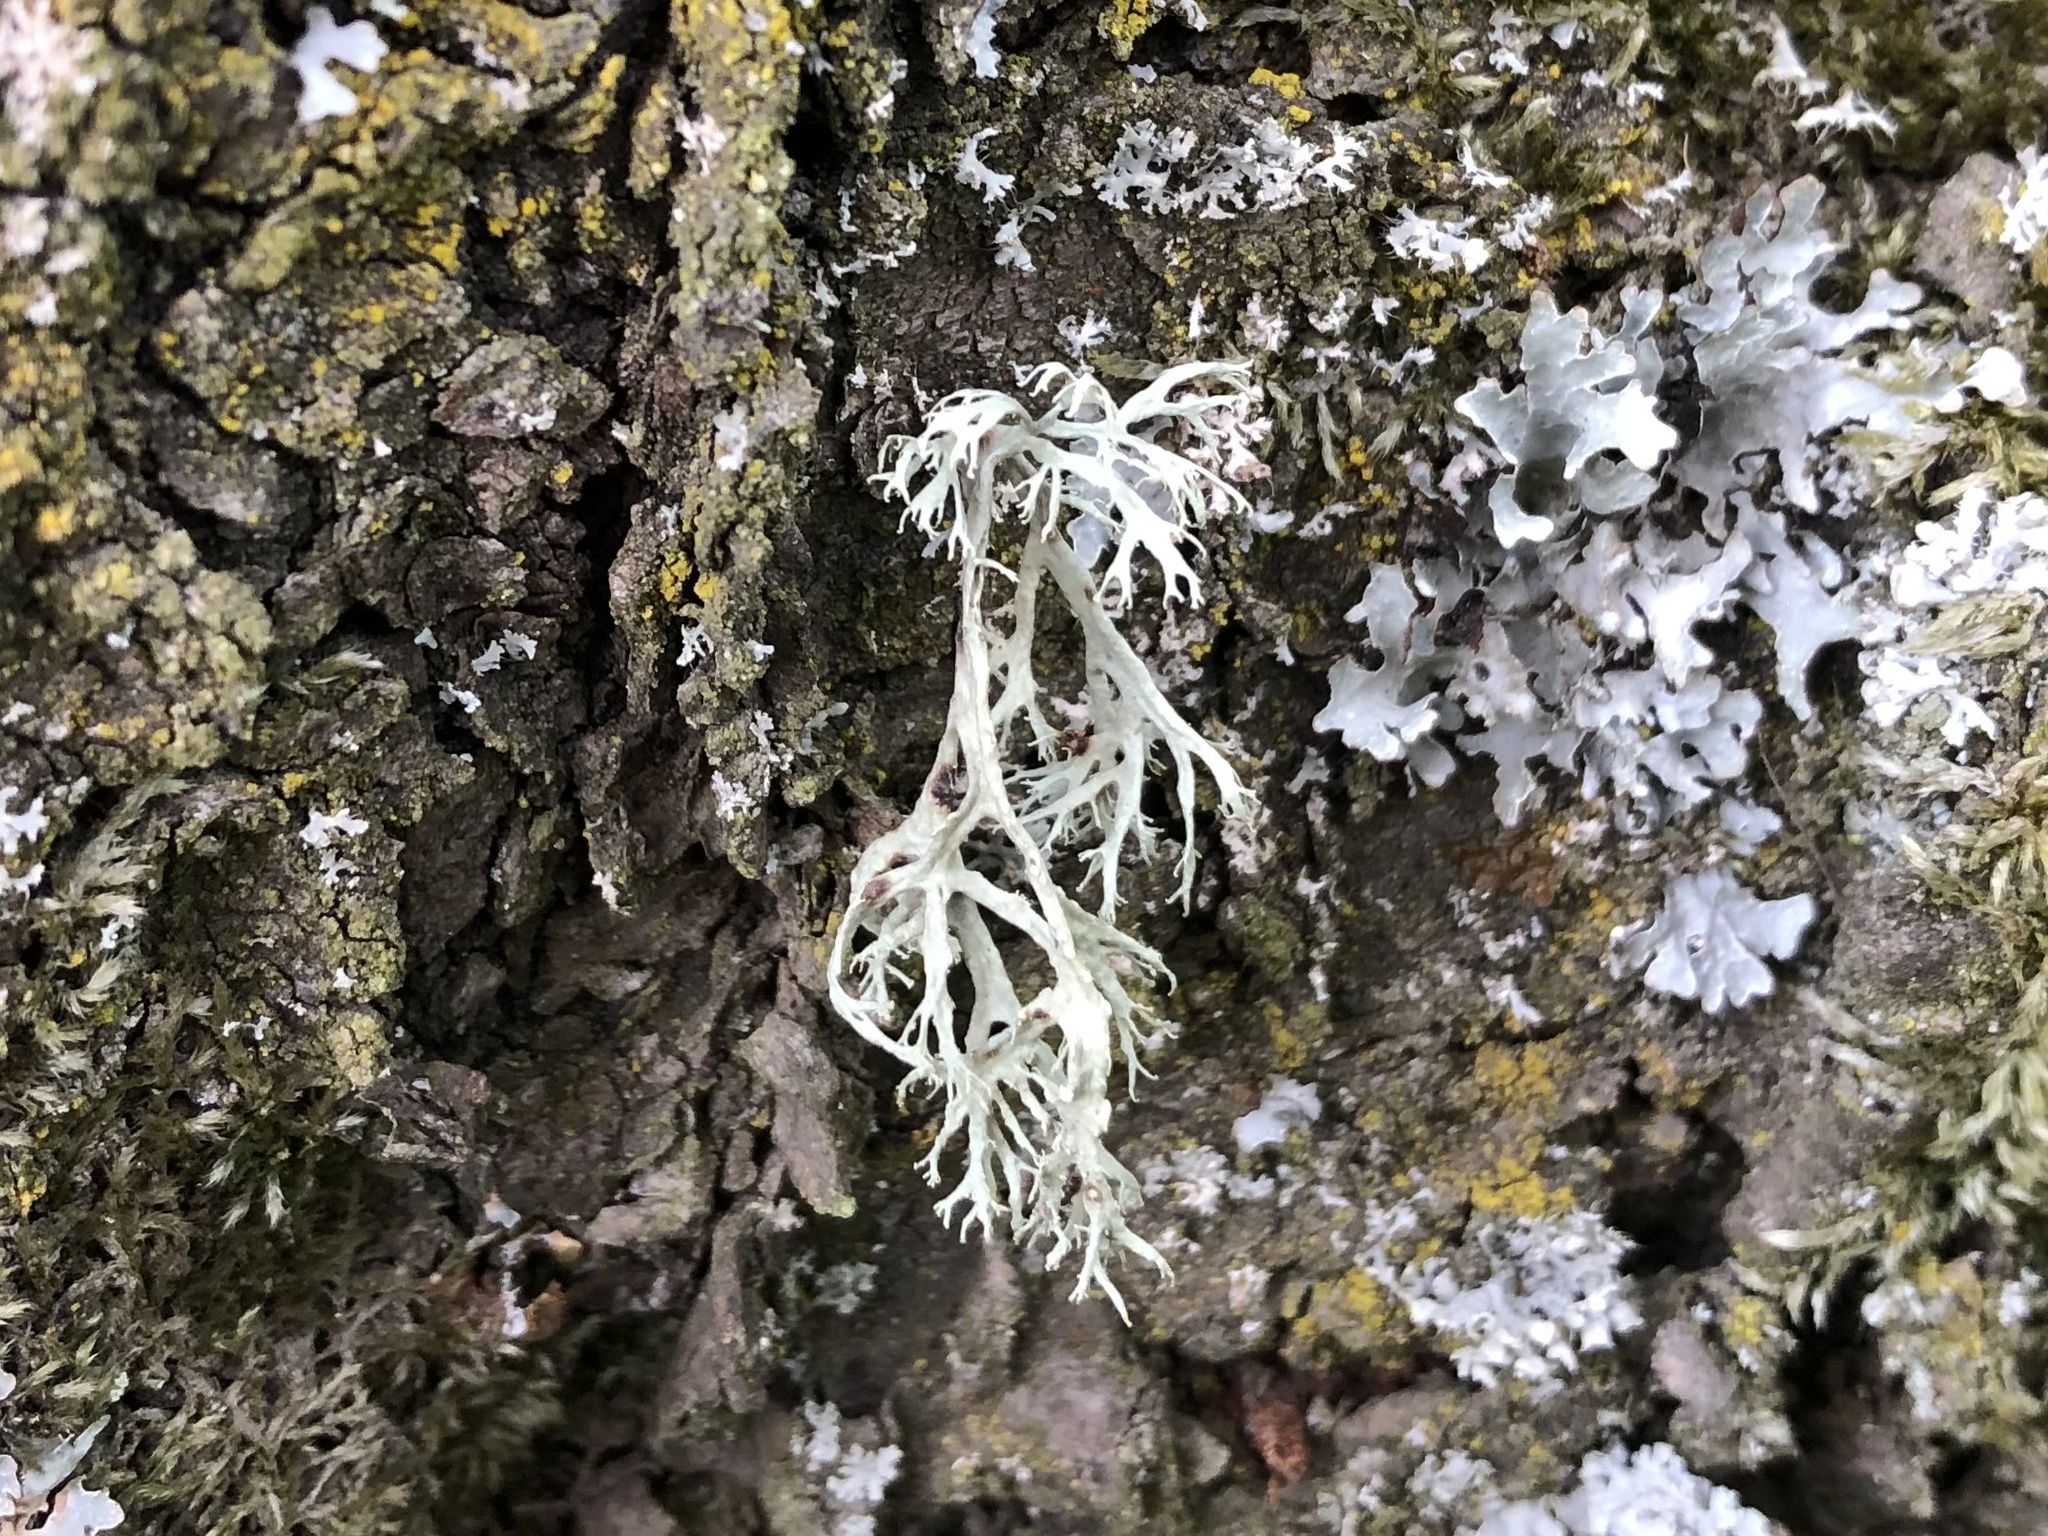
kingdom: Fungi
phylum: Ascomycota
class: Lecanoromycetes
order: Lecanorales
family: Ramalinaceae
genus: Ramalina
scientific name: Ramalina farinacea
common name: Farinose cartilage lichen
